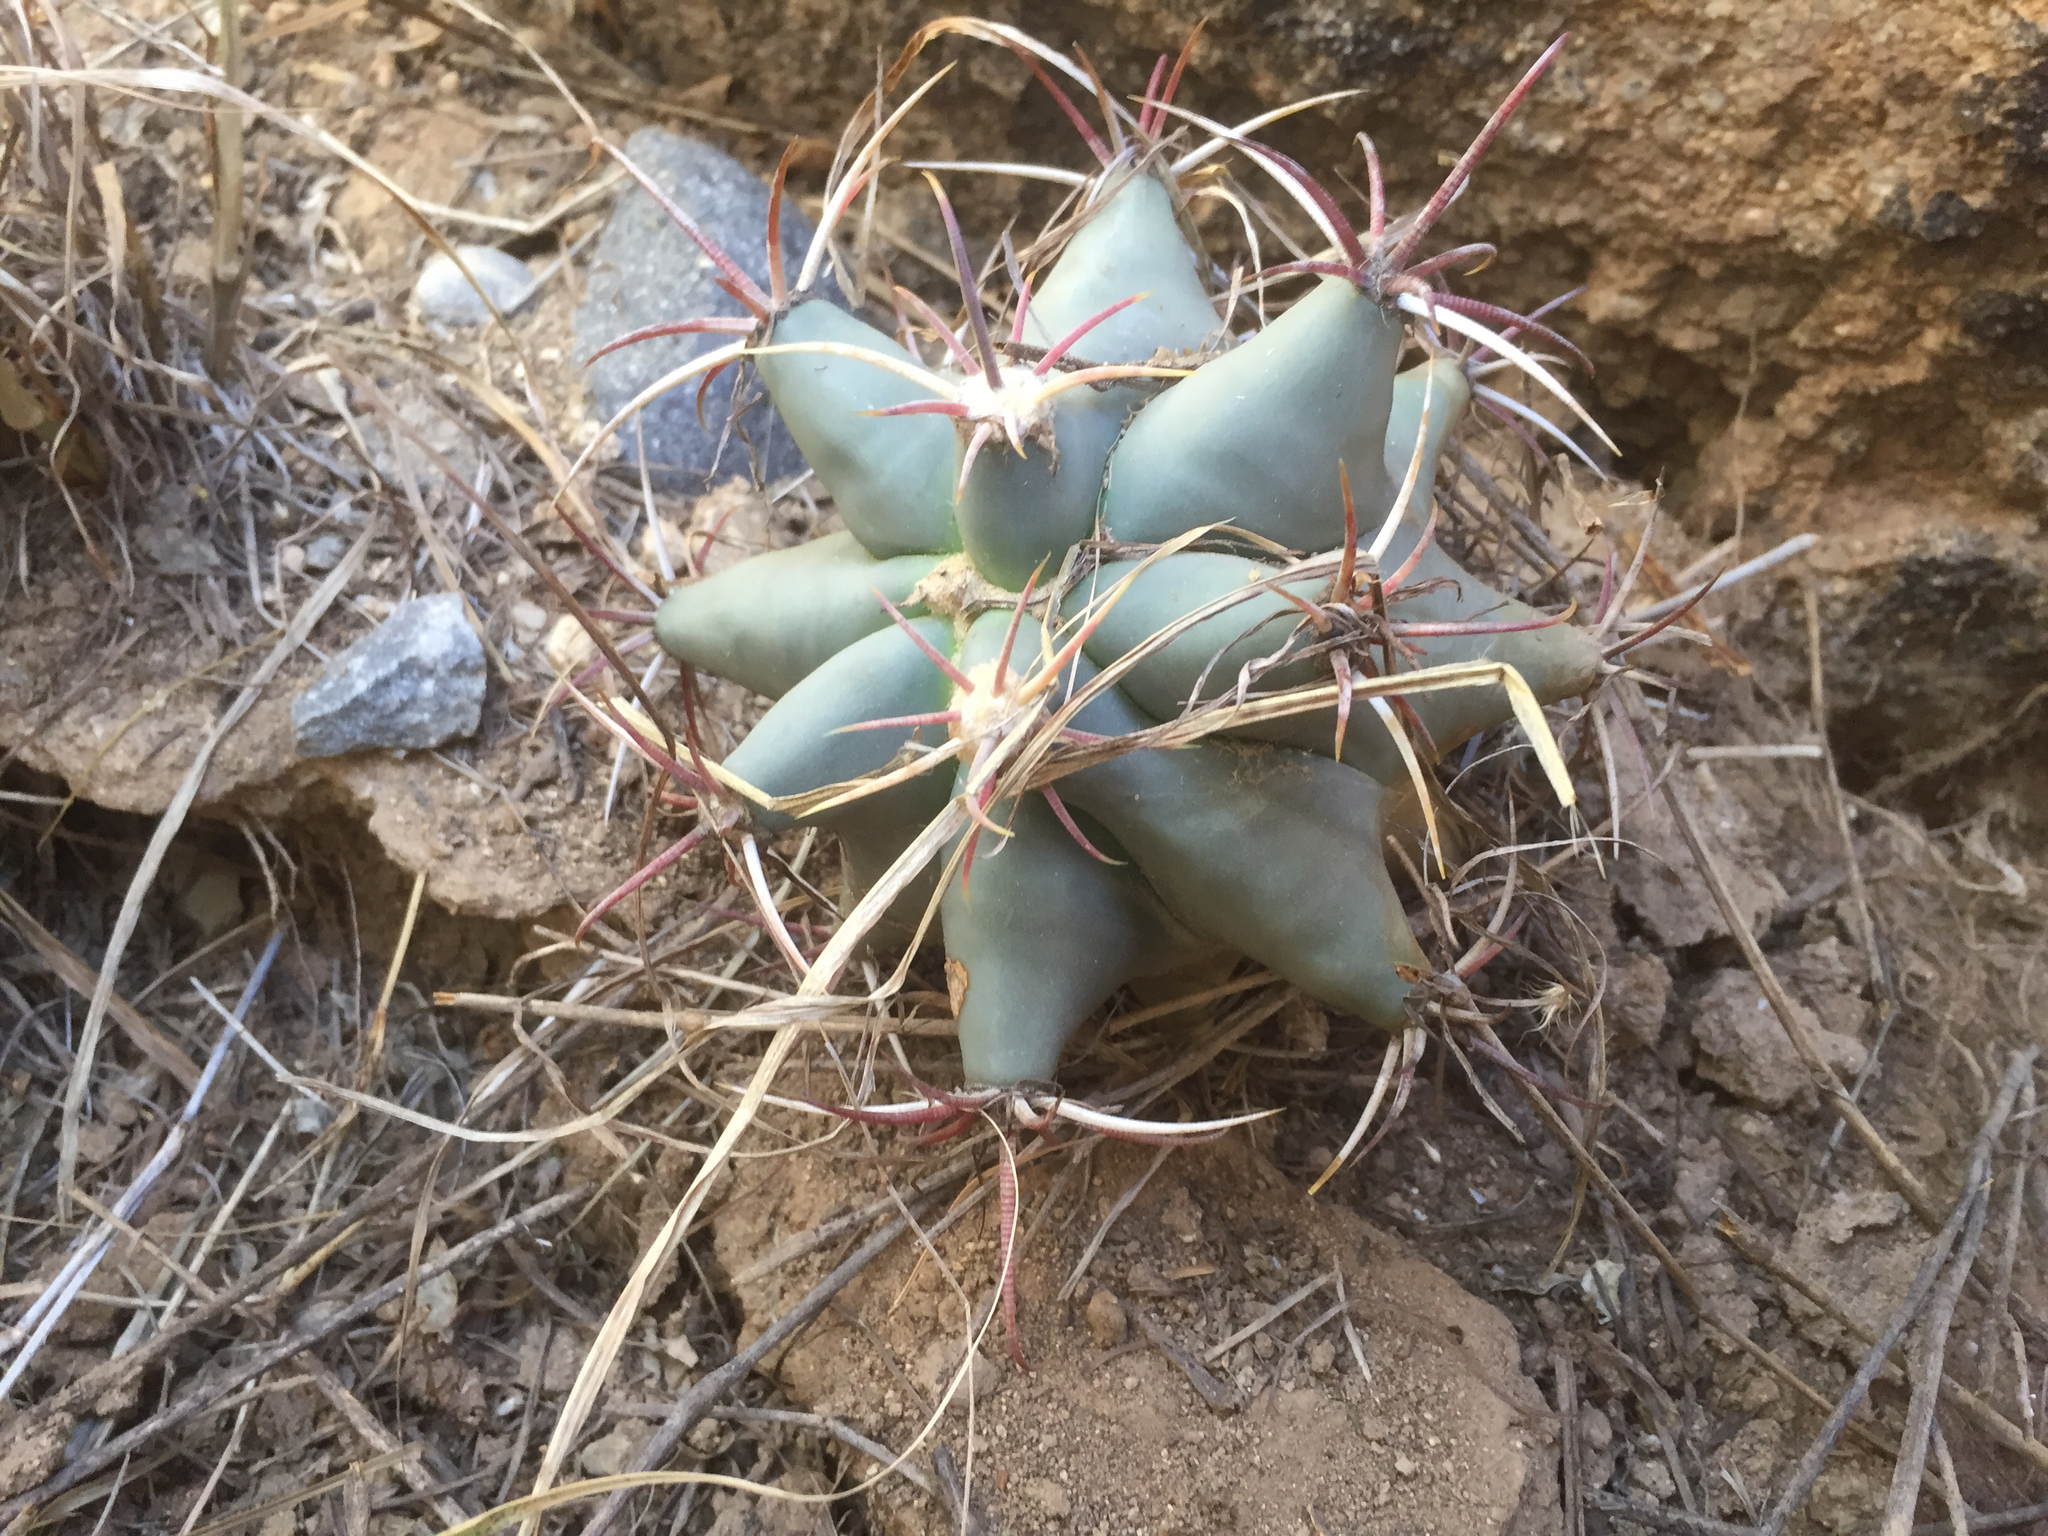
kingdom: Plantae
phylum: Tracheophyta
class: Magnoliopsida
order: Caryophyllales
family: Cactaceae
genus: Ferocactus
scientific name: Ferocactus emoryi
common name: Emory's barrel cactus
